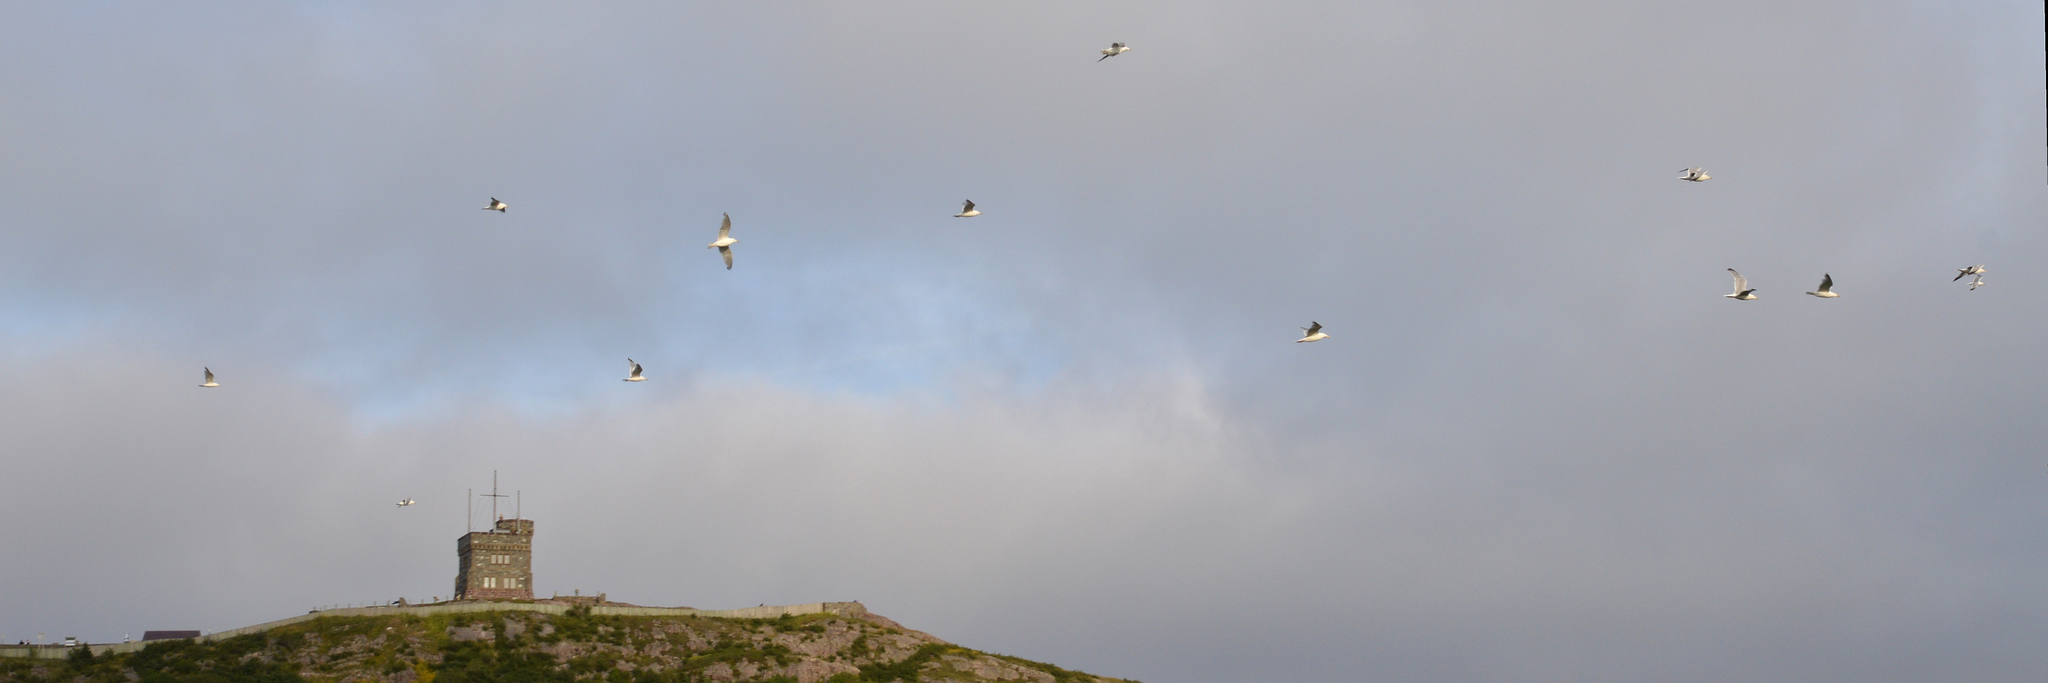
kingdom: Animalia
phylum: Chordata
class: Aves
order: Charadriiformes
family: Laridae
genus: Larus
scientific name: Larus smithsonianus
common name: American herring gull
